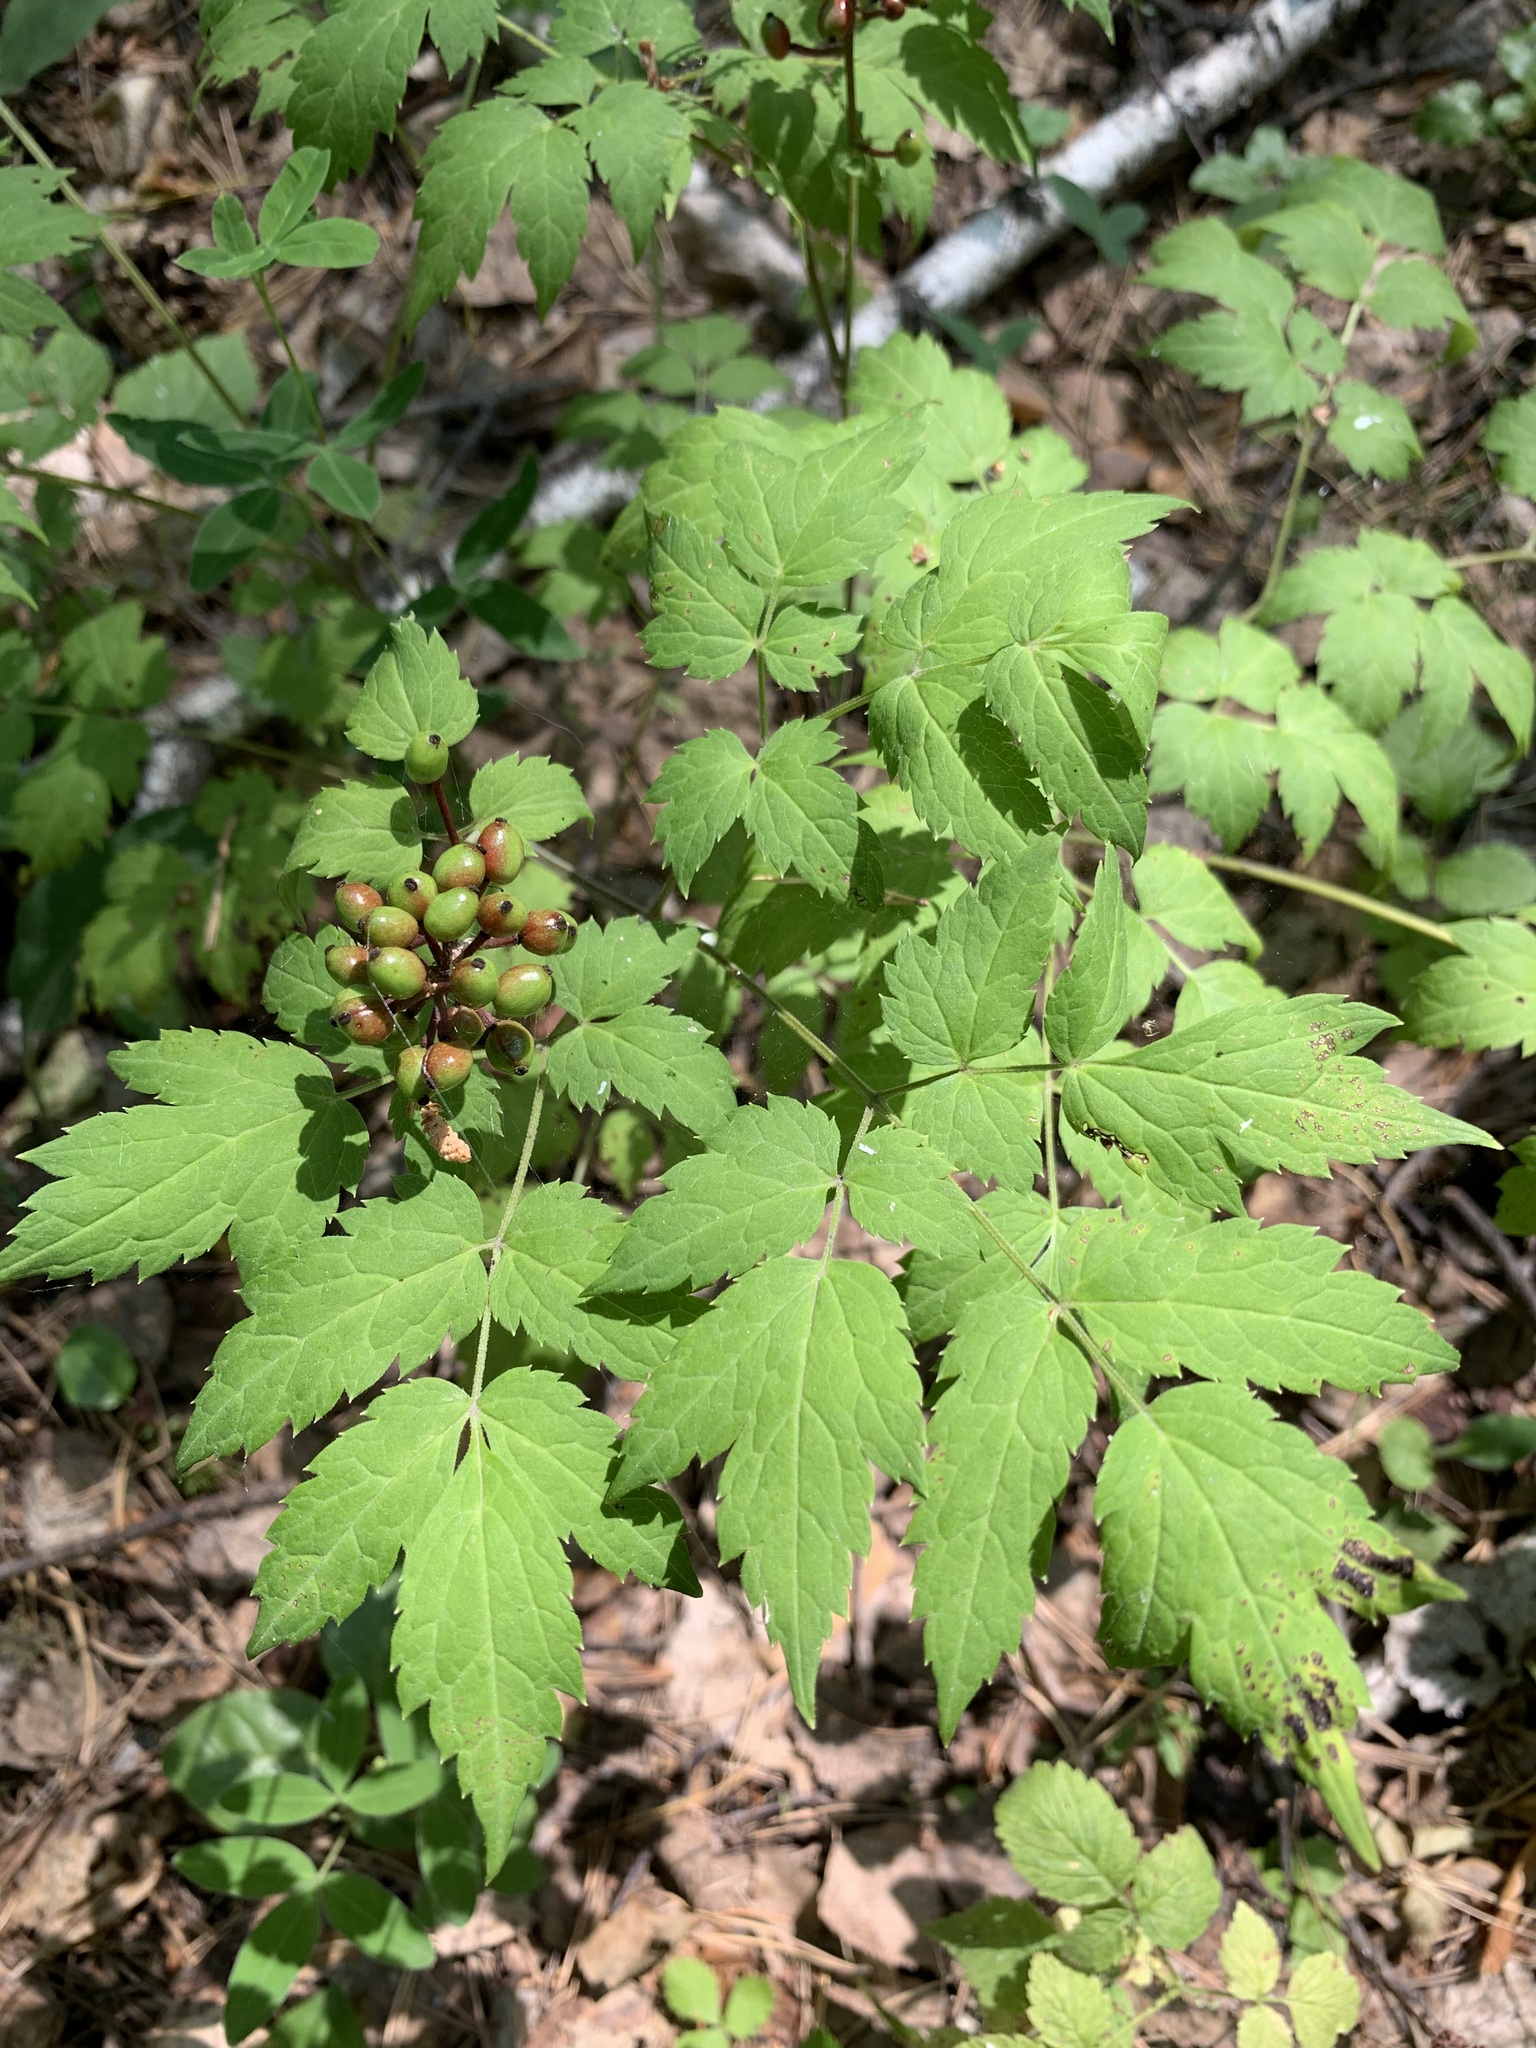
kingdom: Plantae
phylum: Tracheophyta
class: Magnoliopsida
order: Ranunculales
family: Ranunculaceae
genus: Actaea
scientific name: Actaea erythrocarpa
